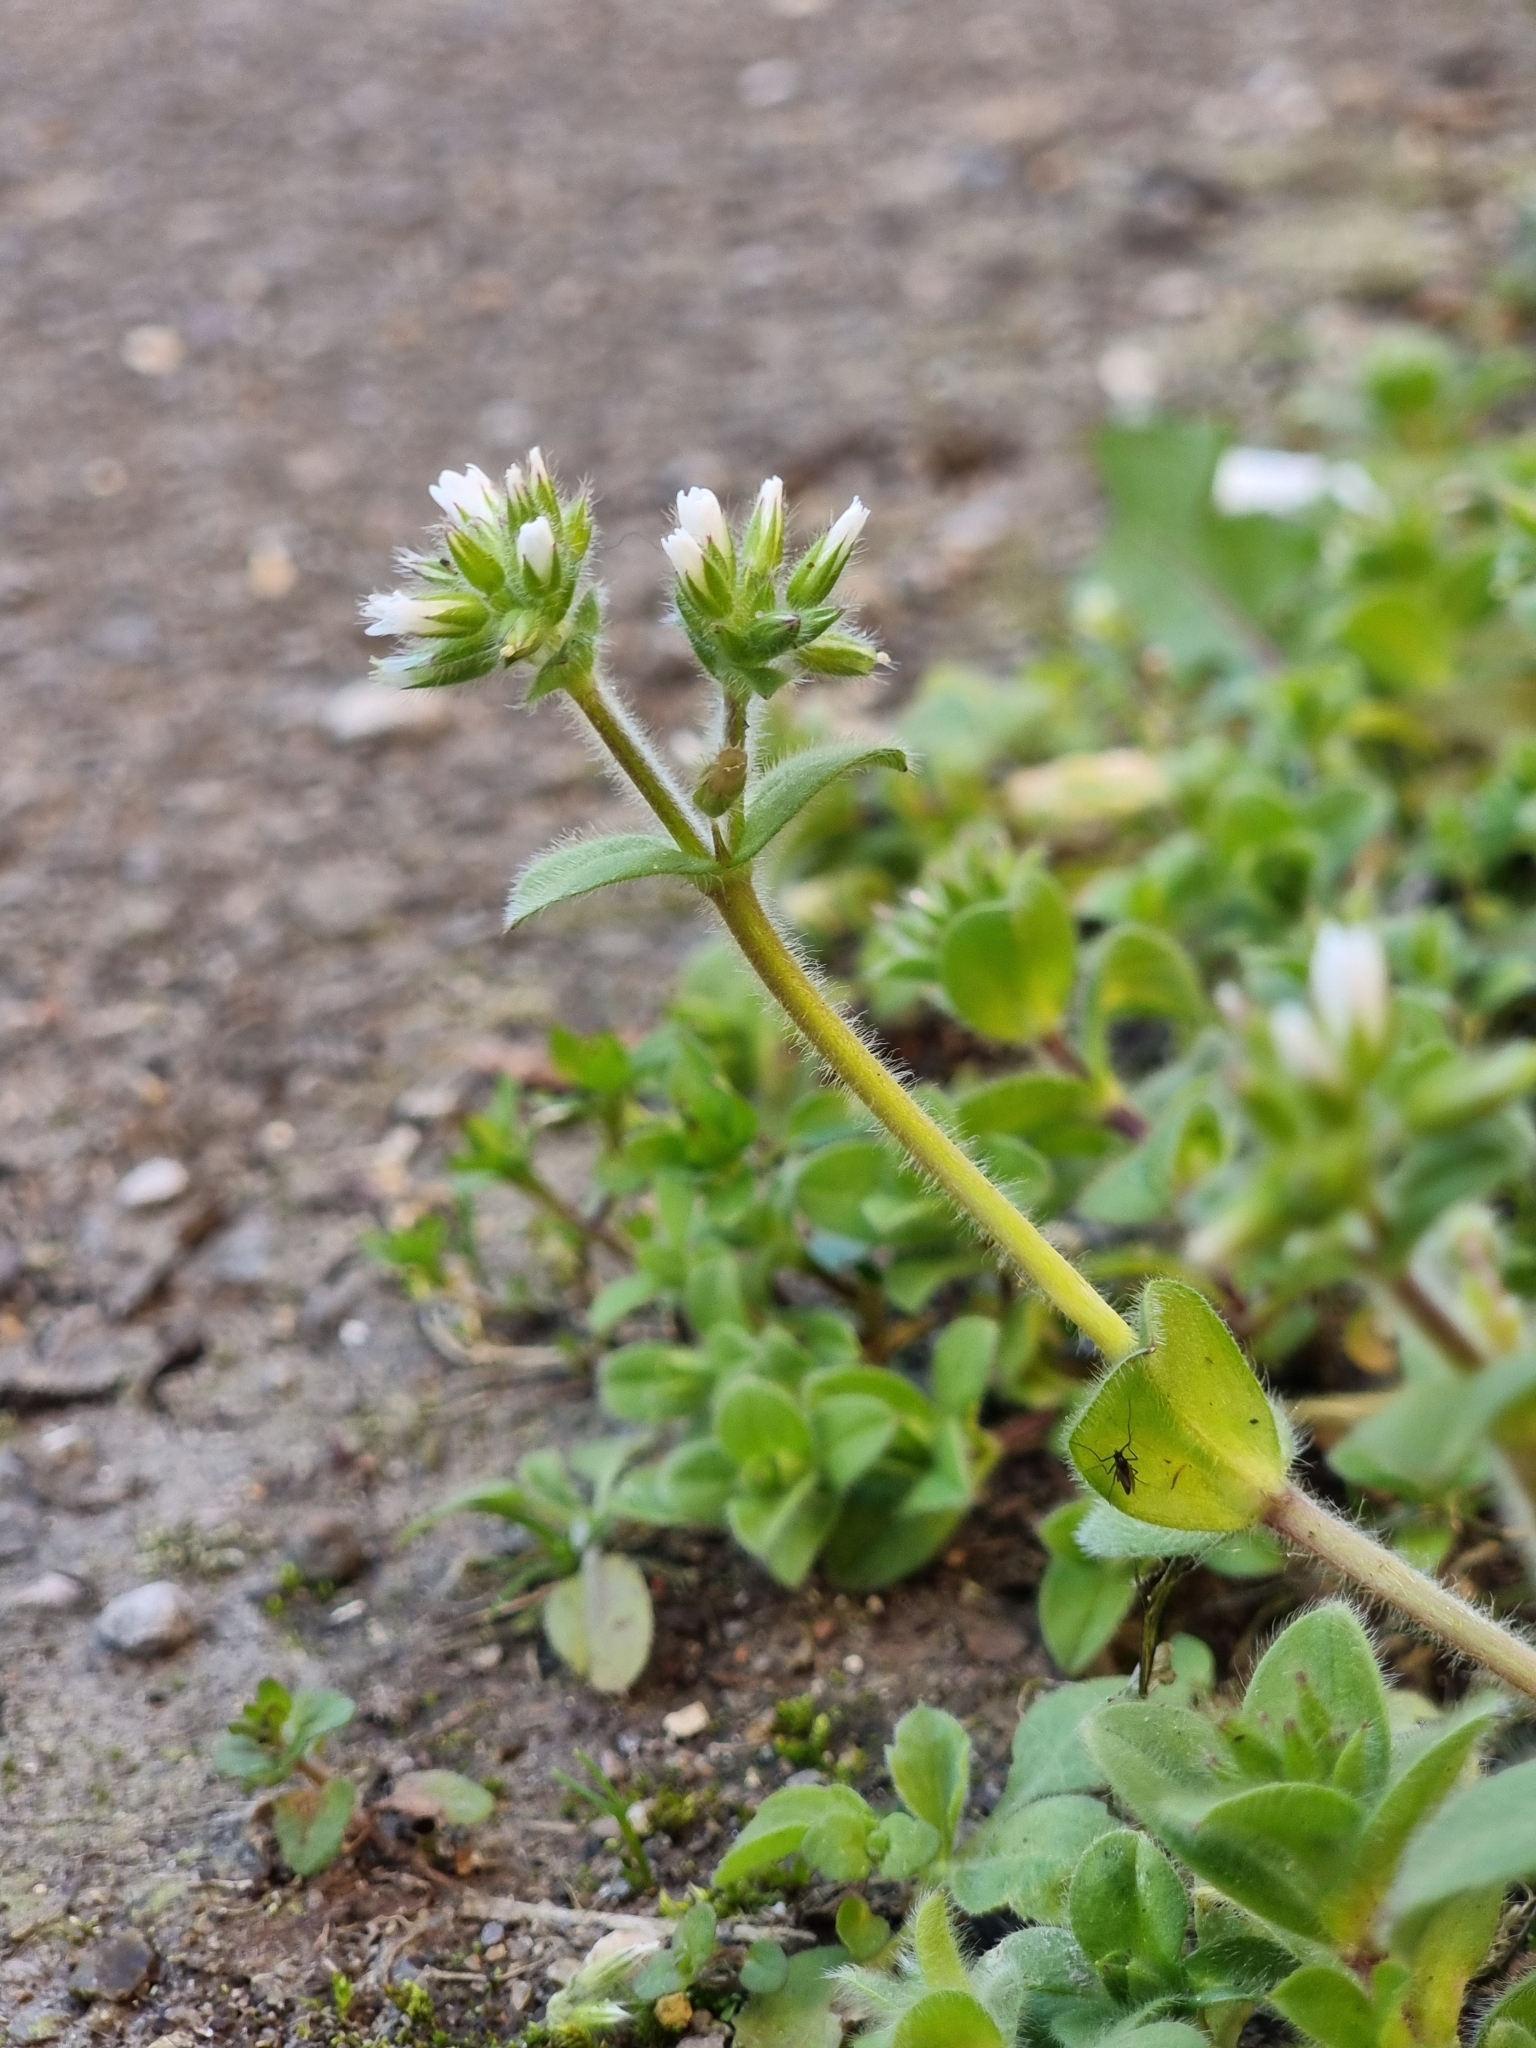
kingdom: Plantae
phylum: Tracheophyta
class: Magnoliopsida
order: Caryophyllales
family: Caryophyllaceae
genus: Cerastium
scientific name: Cerastium glomeratum
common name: Sticky chickweed
